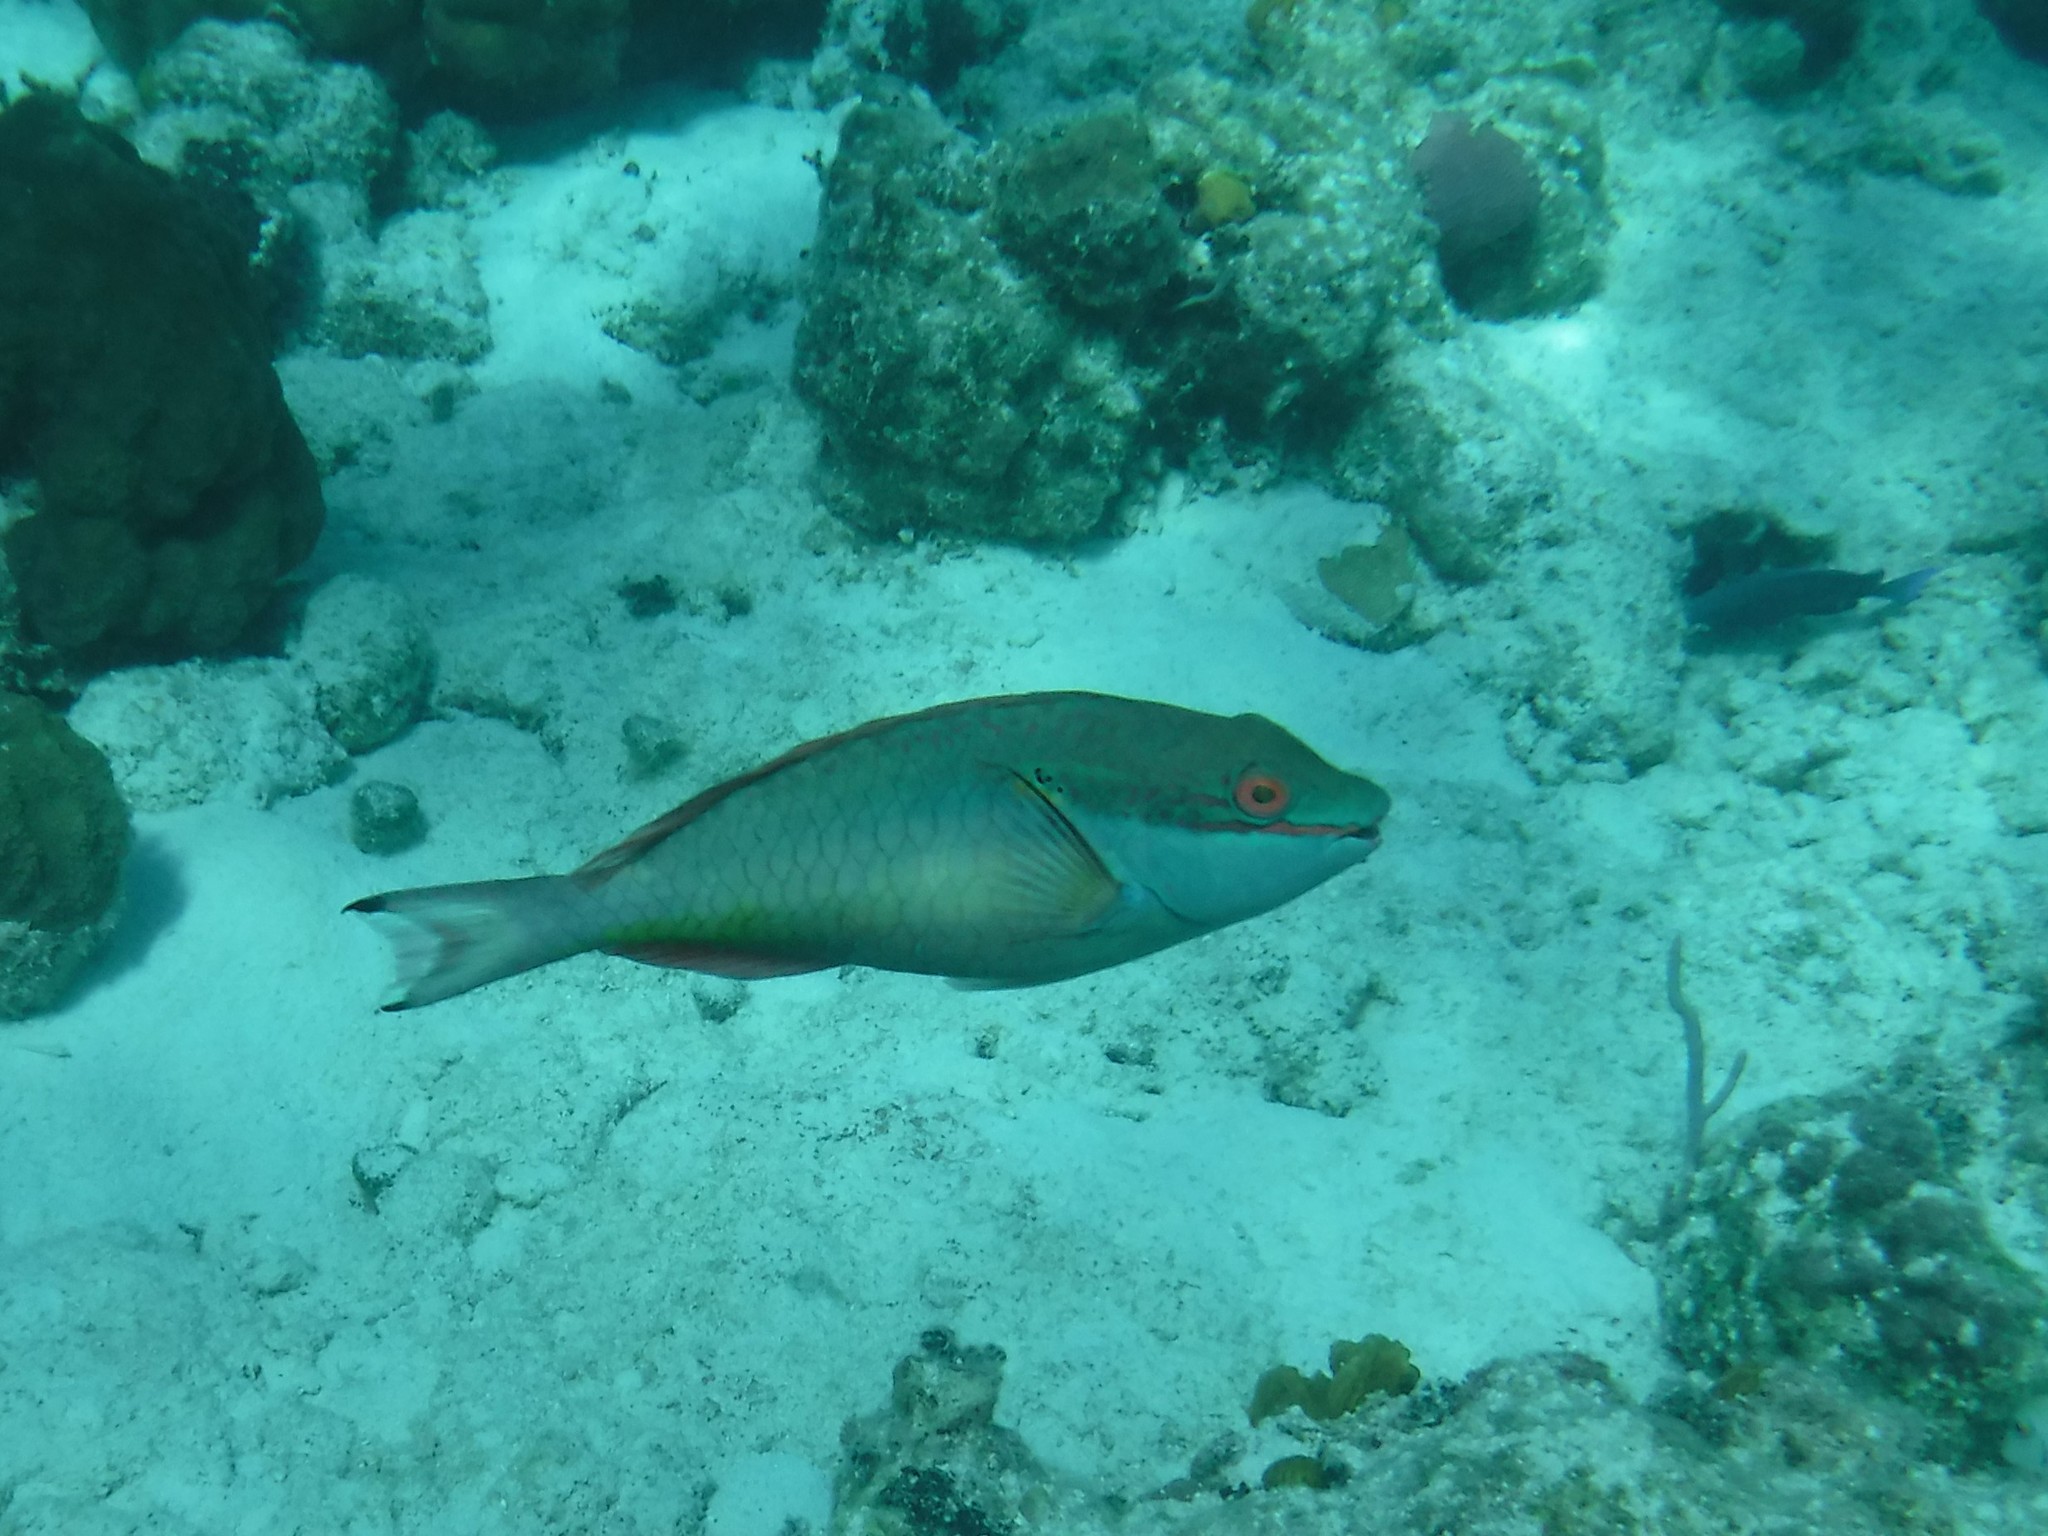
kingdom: Animalia
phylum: Chordata
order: Perciformes
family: Scaridae
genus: Sparisoma
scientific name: Sparisoma aurofrenatum
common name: Redband parrotfish
